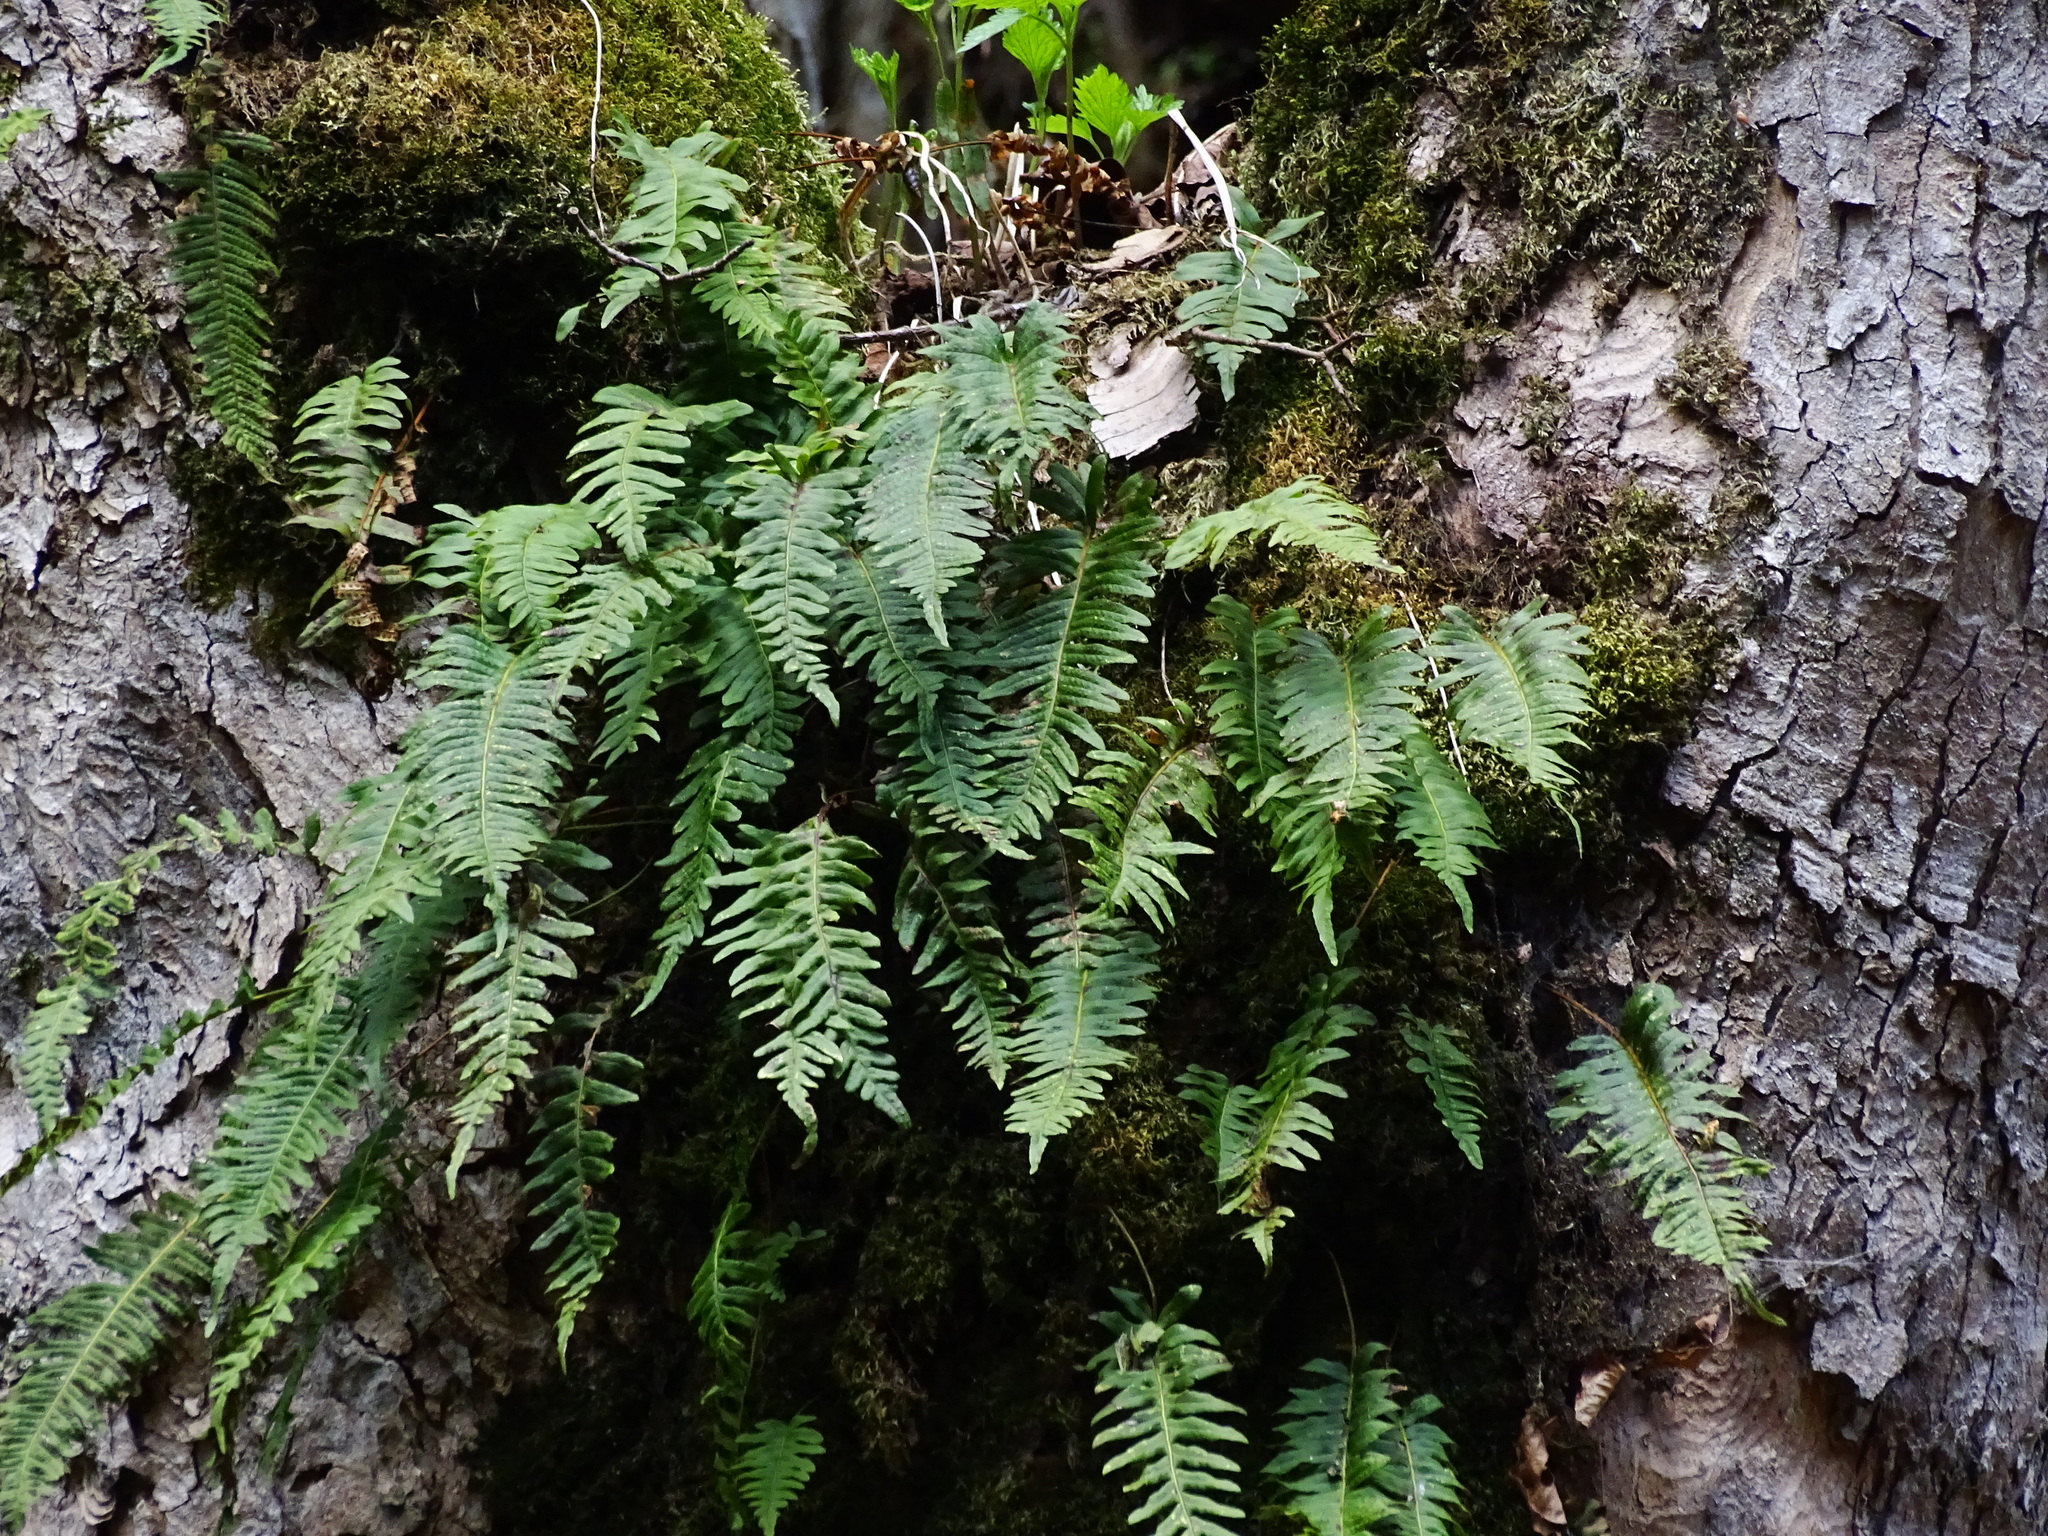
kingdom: Plantae
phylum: Tracheophyta
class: Polypodiopsida
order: Polypodiales
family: Polypodiaceae
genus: Polypodium
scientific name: Polypodium vulgare
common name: Common polypody
